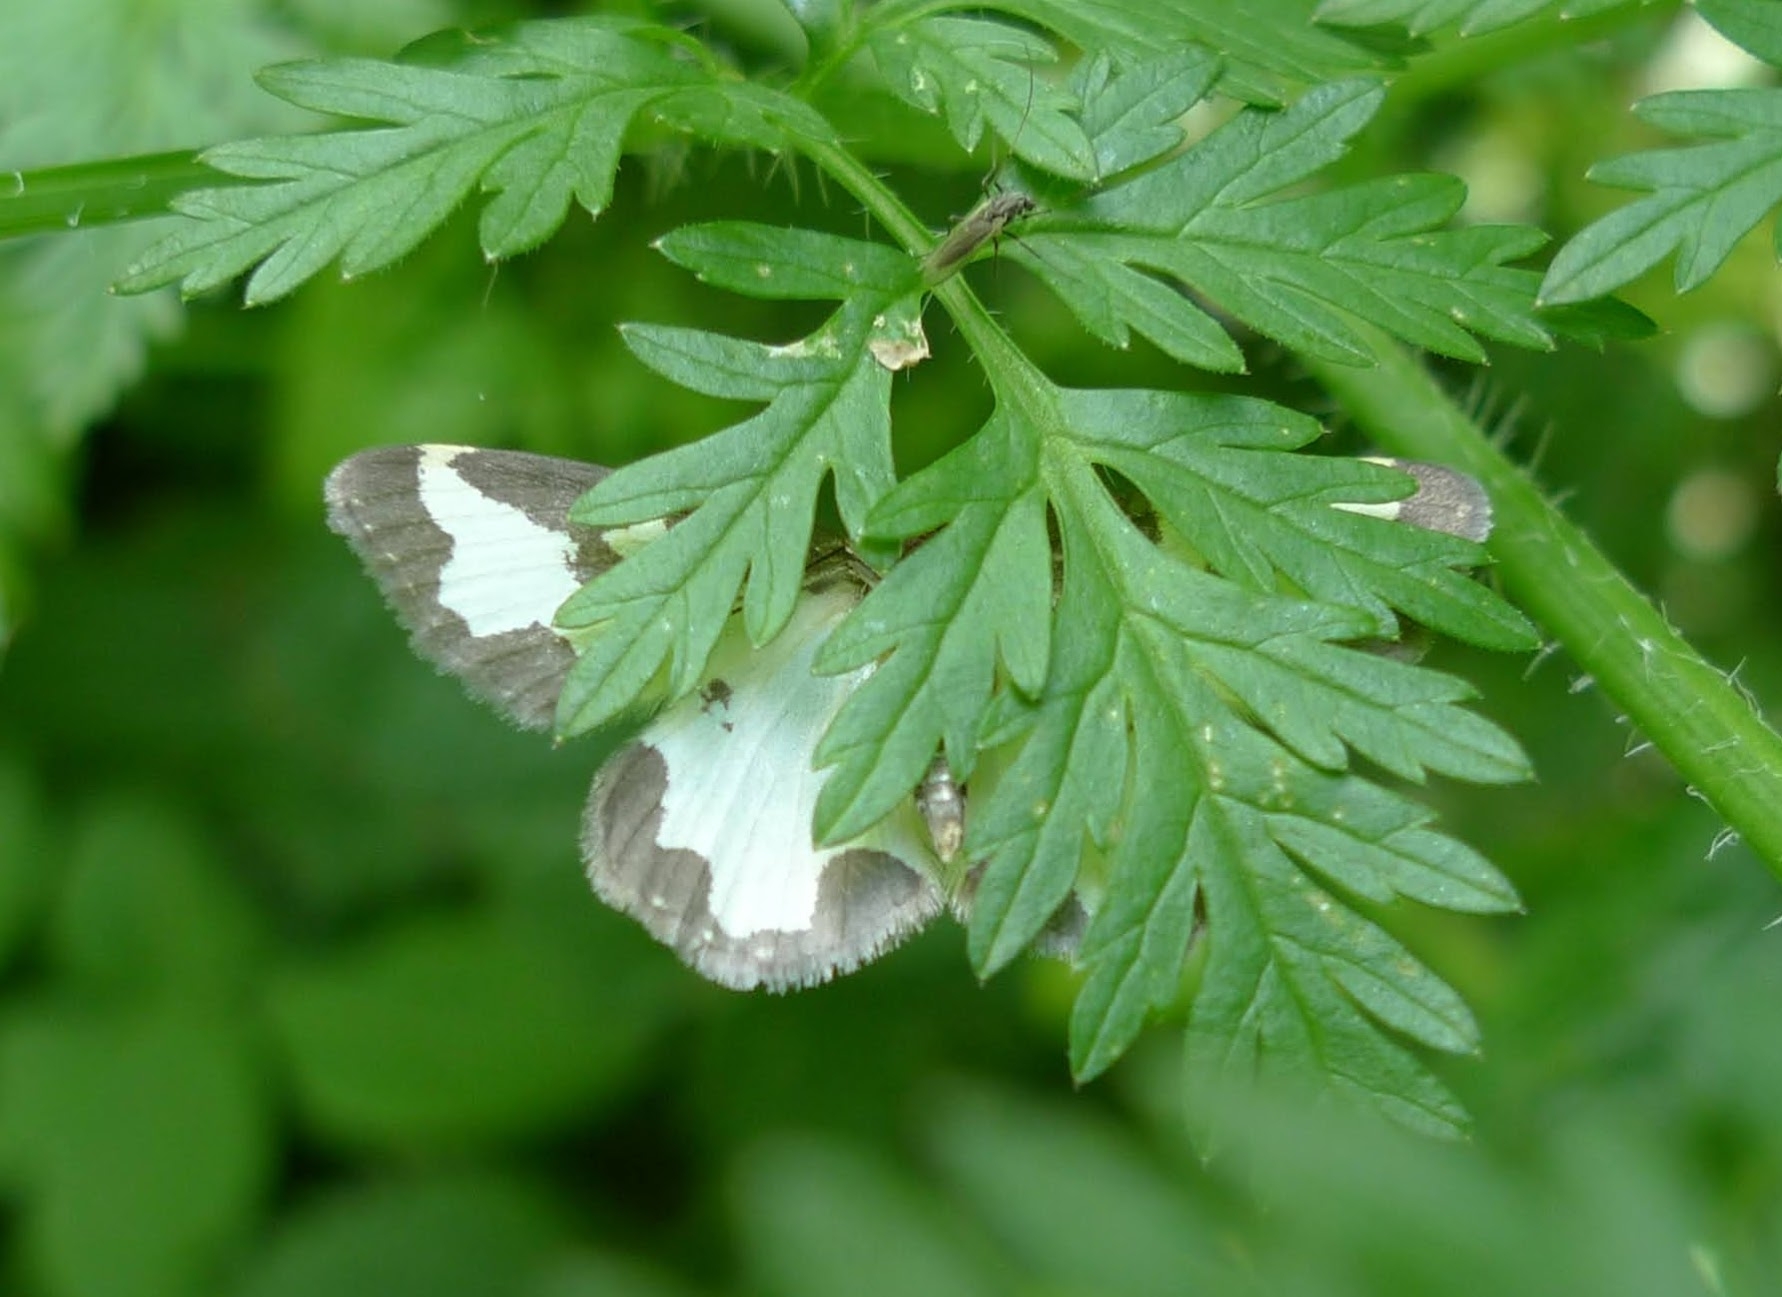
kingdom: Animalia
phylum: Arthropoda
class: Insecta
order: Lepidoptera
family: Geometridae
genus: Lomaspilis
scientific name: Lomaspilis marginata
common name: Clouded border
